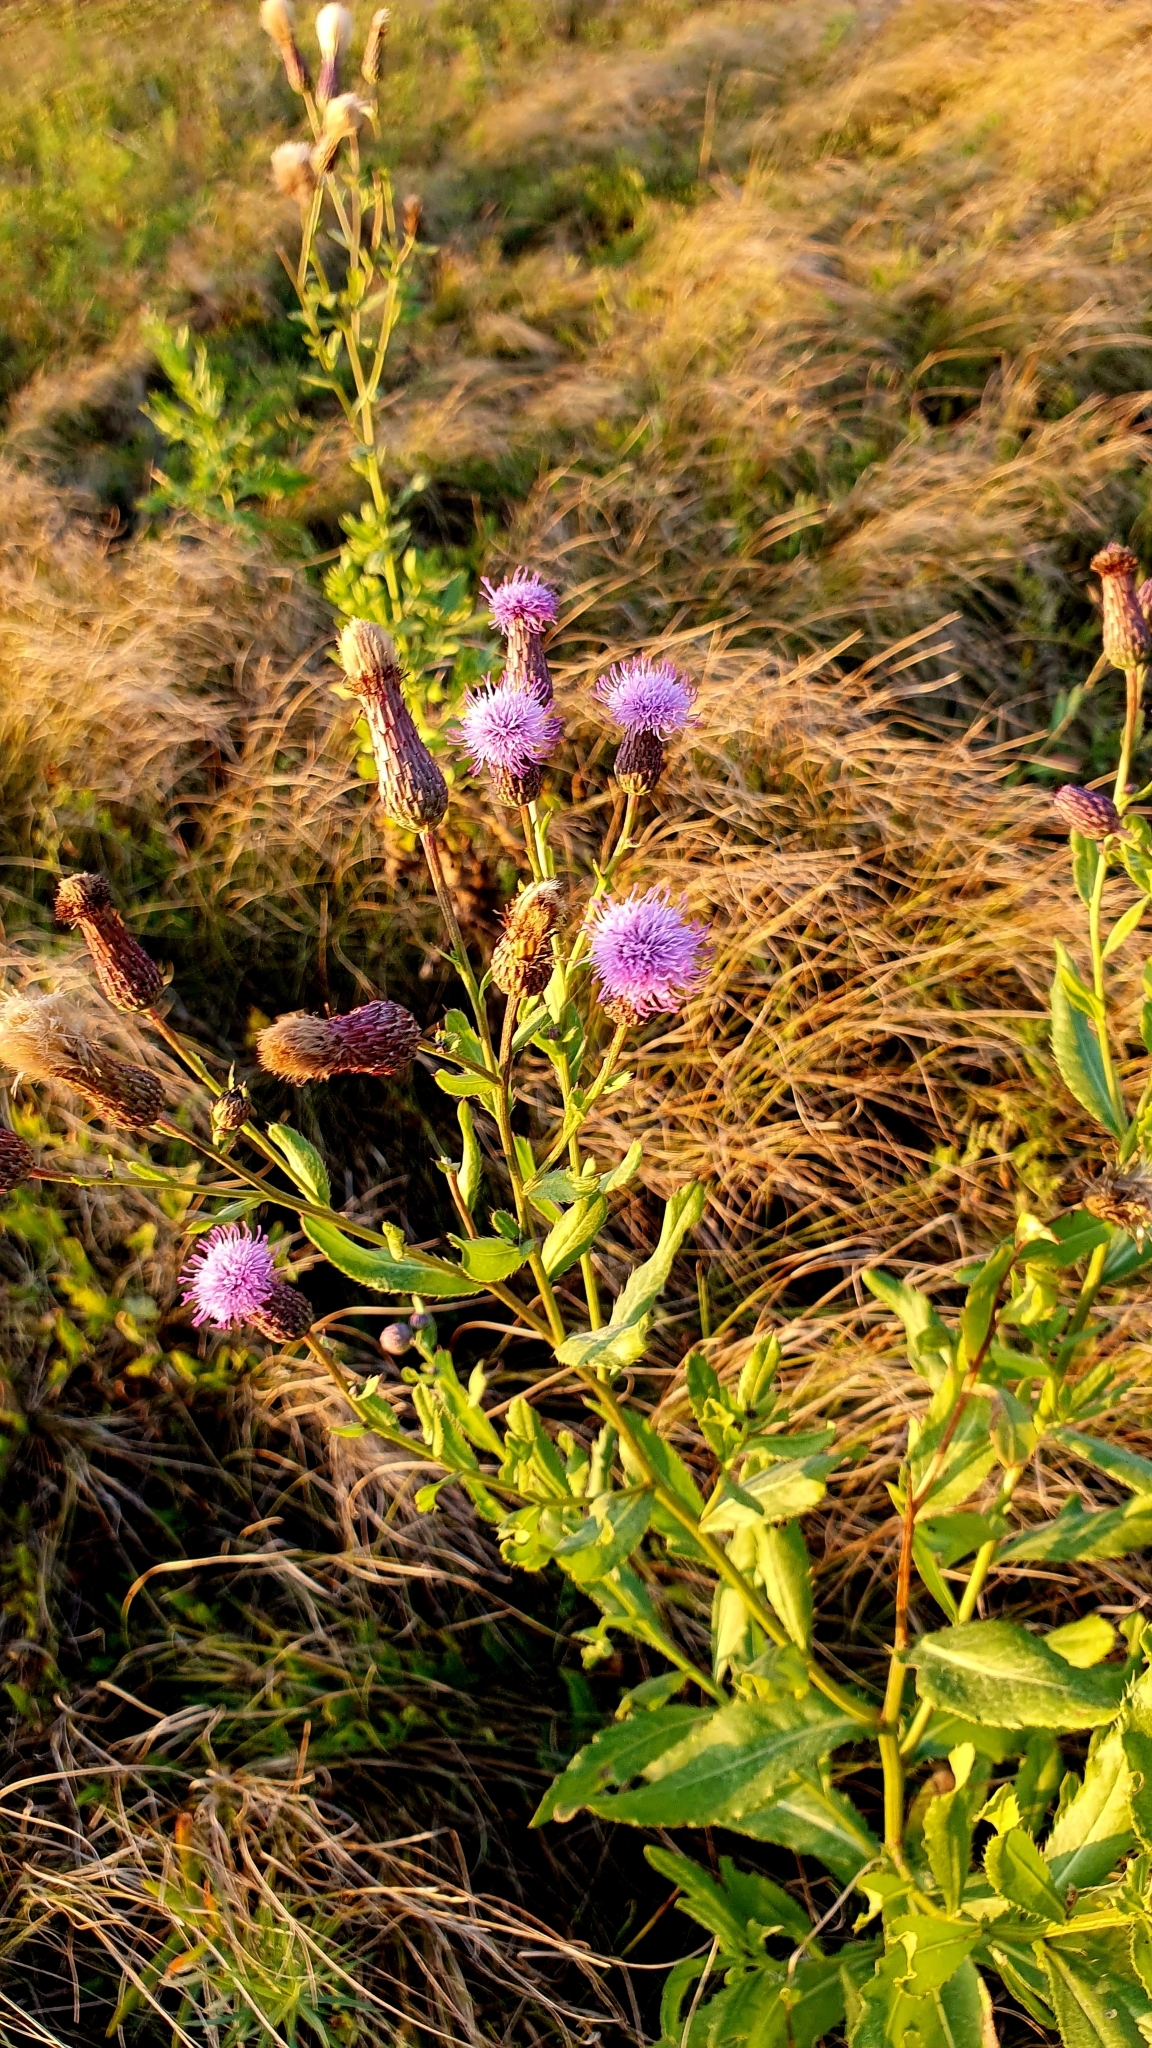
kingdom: Plantae
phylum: Tracheophyta
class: Magnoliopsida
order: Asterales
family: Asteraceae
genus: Cirsium
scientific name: Cirsium arvense
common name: Creeping thistle
